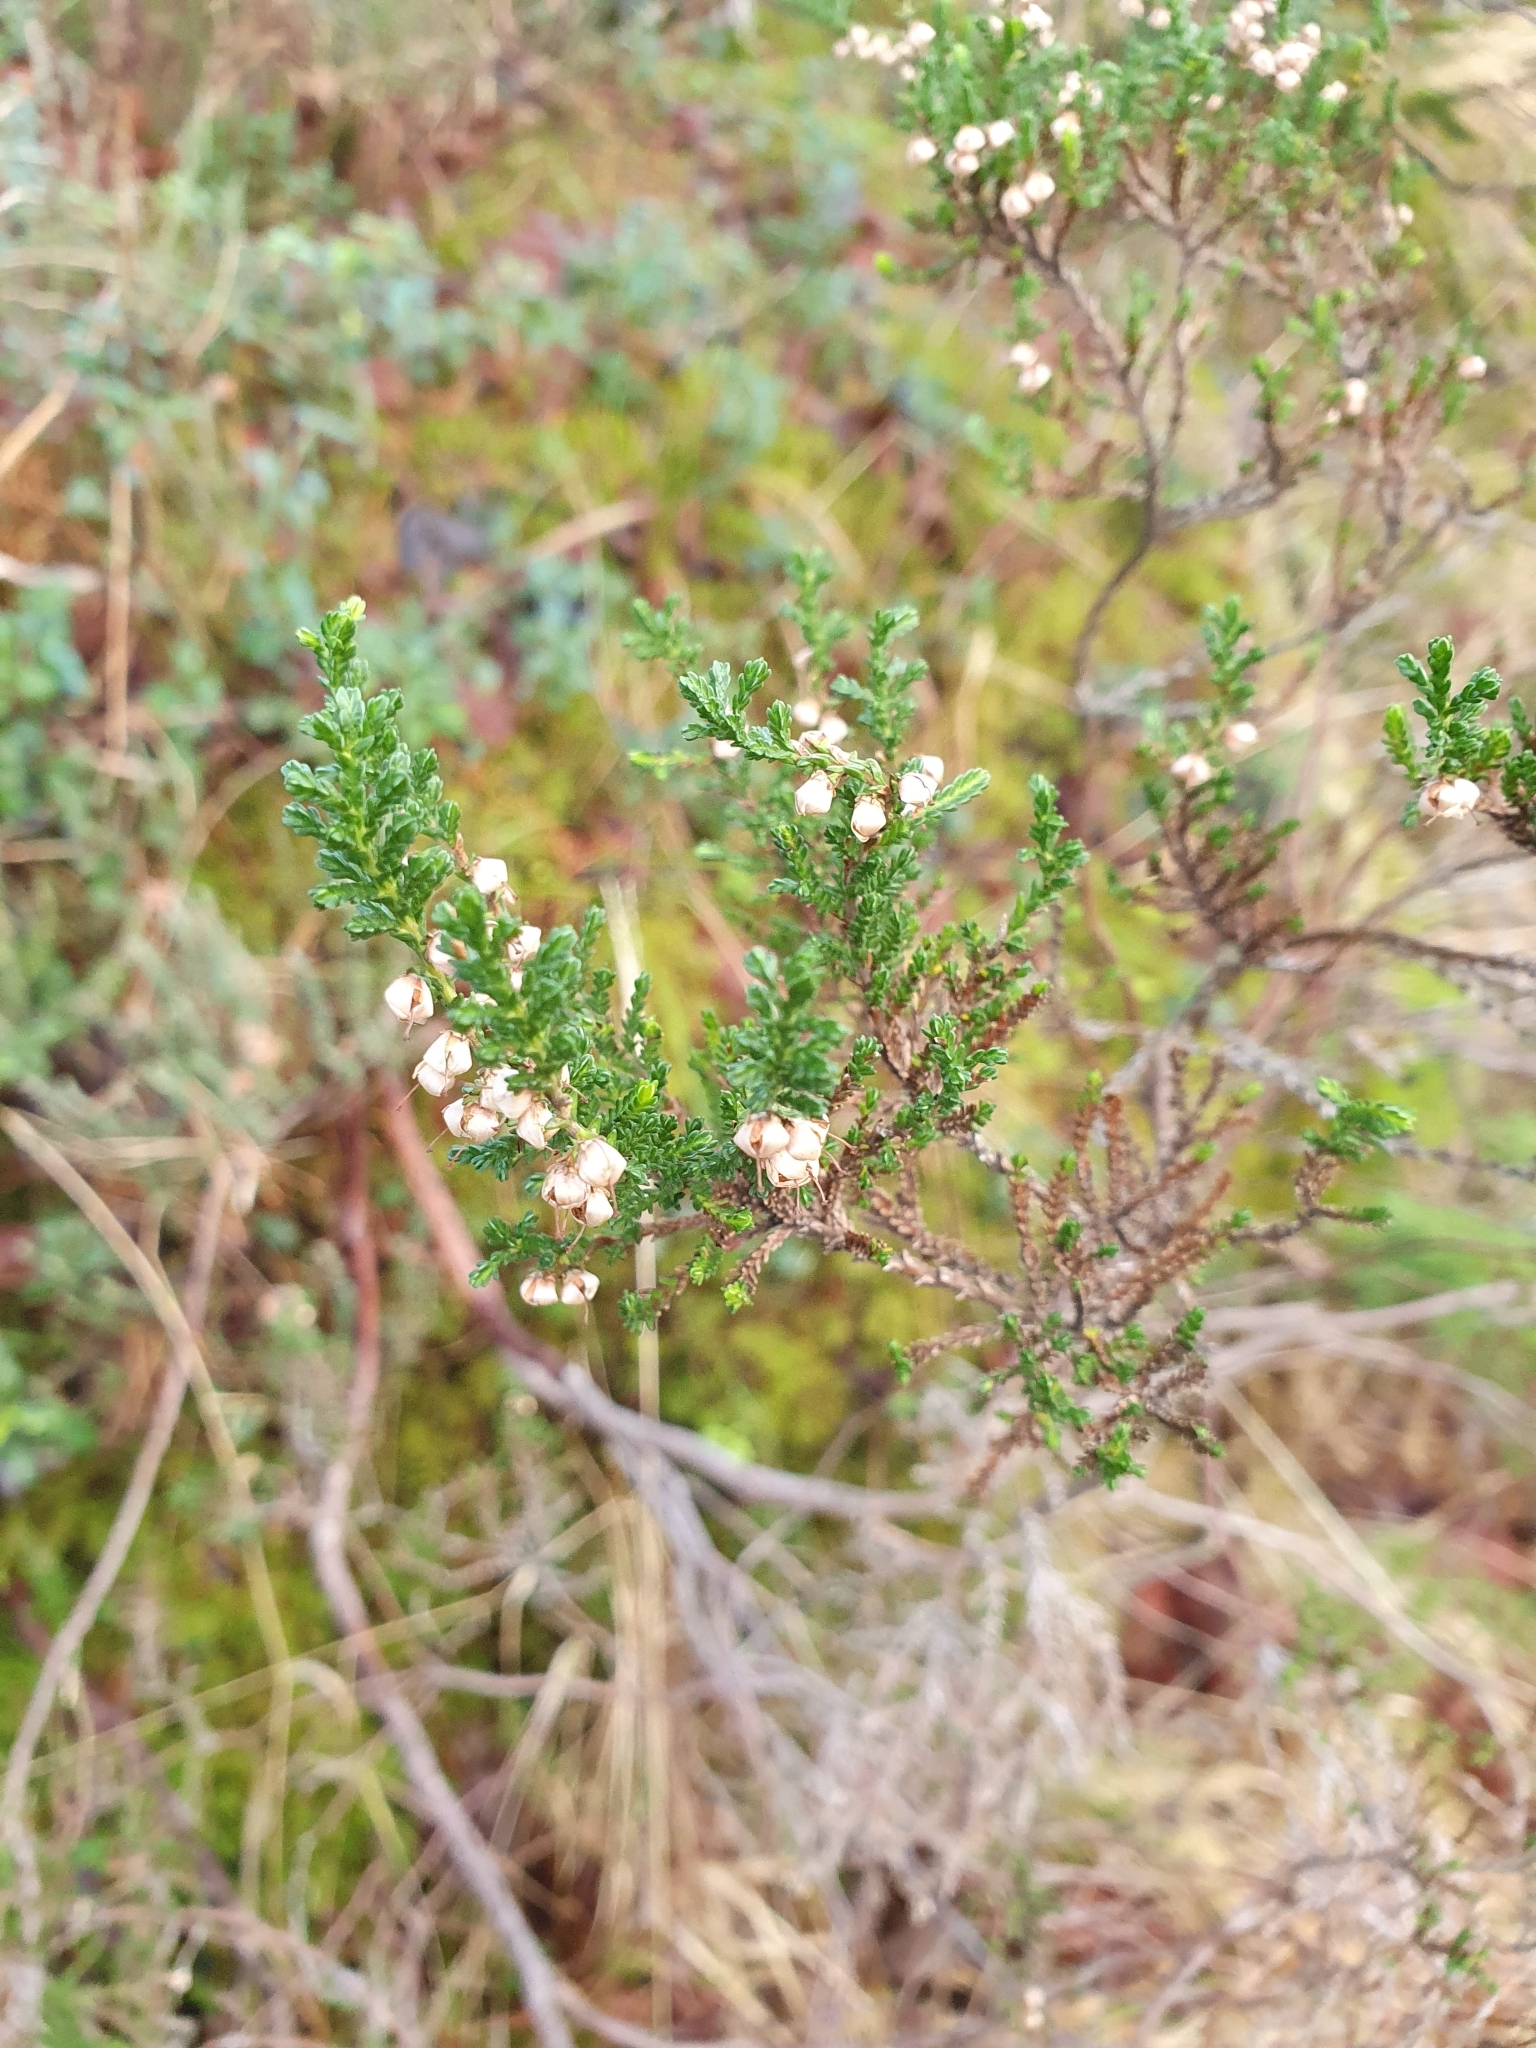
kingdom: Plantae
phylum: Tracheophyta
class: Magnoliopsida
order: Ericales
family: Ericaceae
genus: Calluna
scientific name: Calluna vulgaris
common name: Heather
